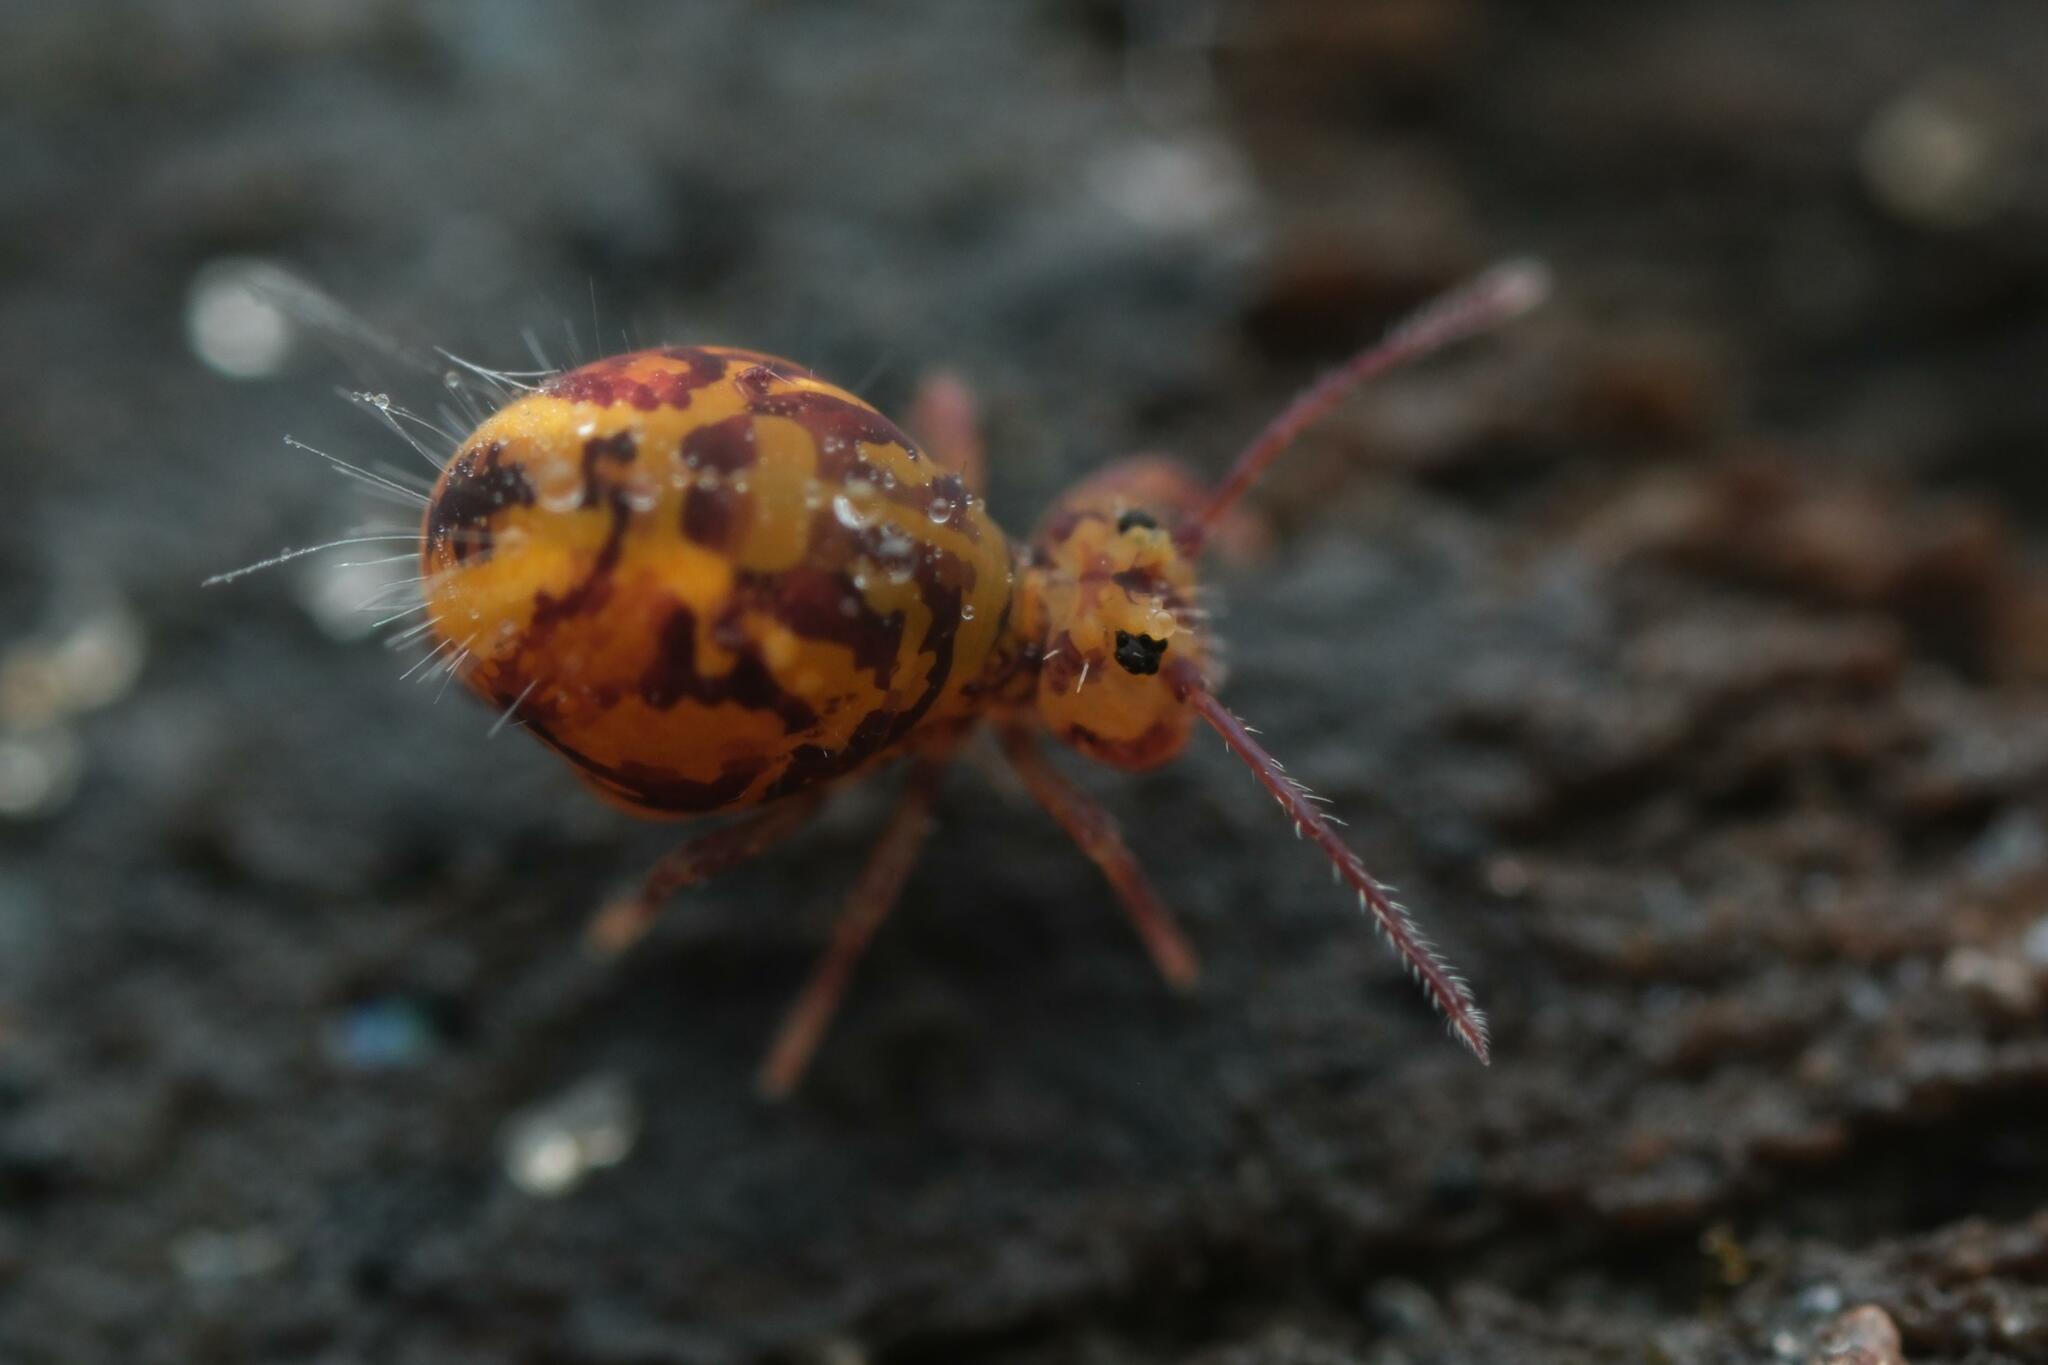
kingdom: Animalia
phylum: Arthropoda
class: Collembola
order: Symphypleona
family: Dicyrtomidae
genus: Dicyrtomina
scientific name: Dicyrtomina ornata
